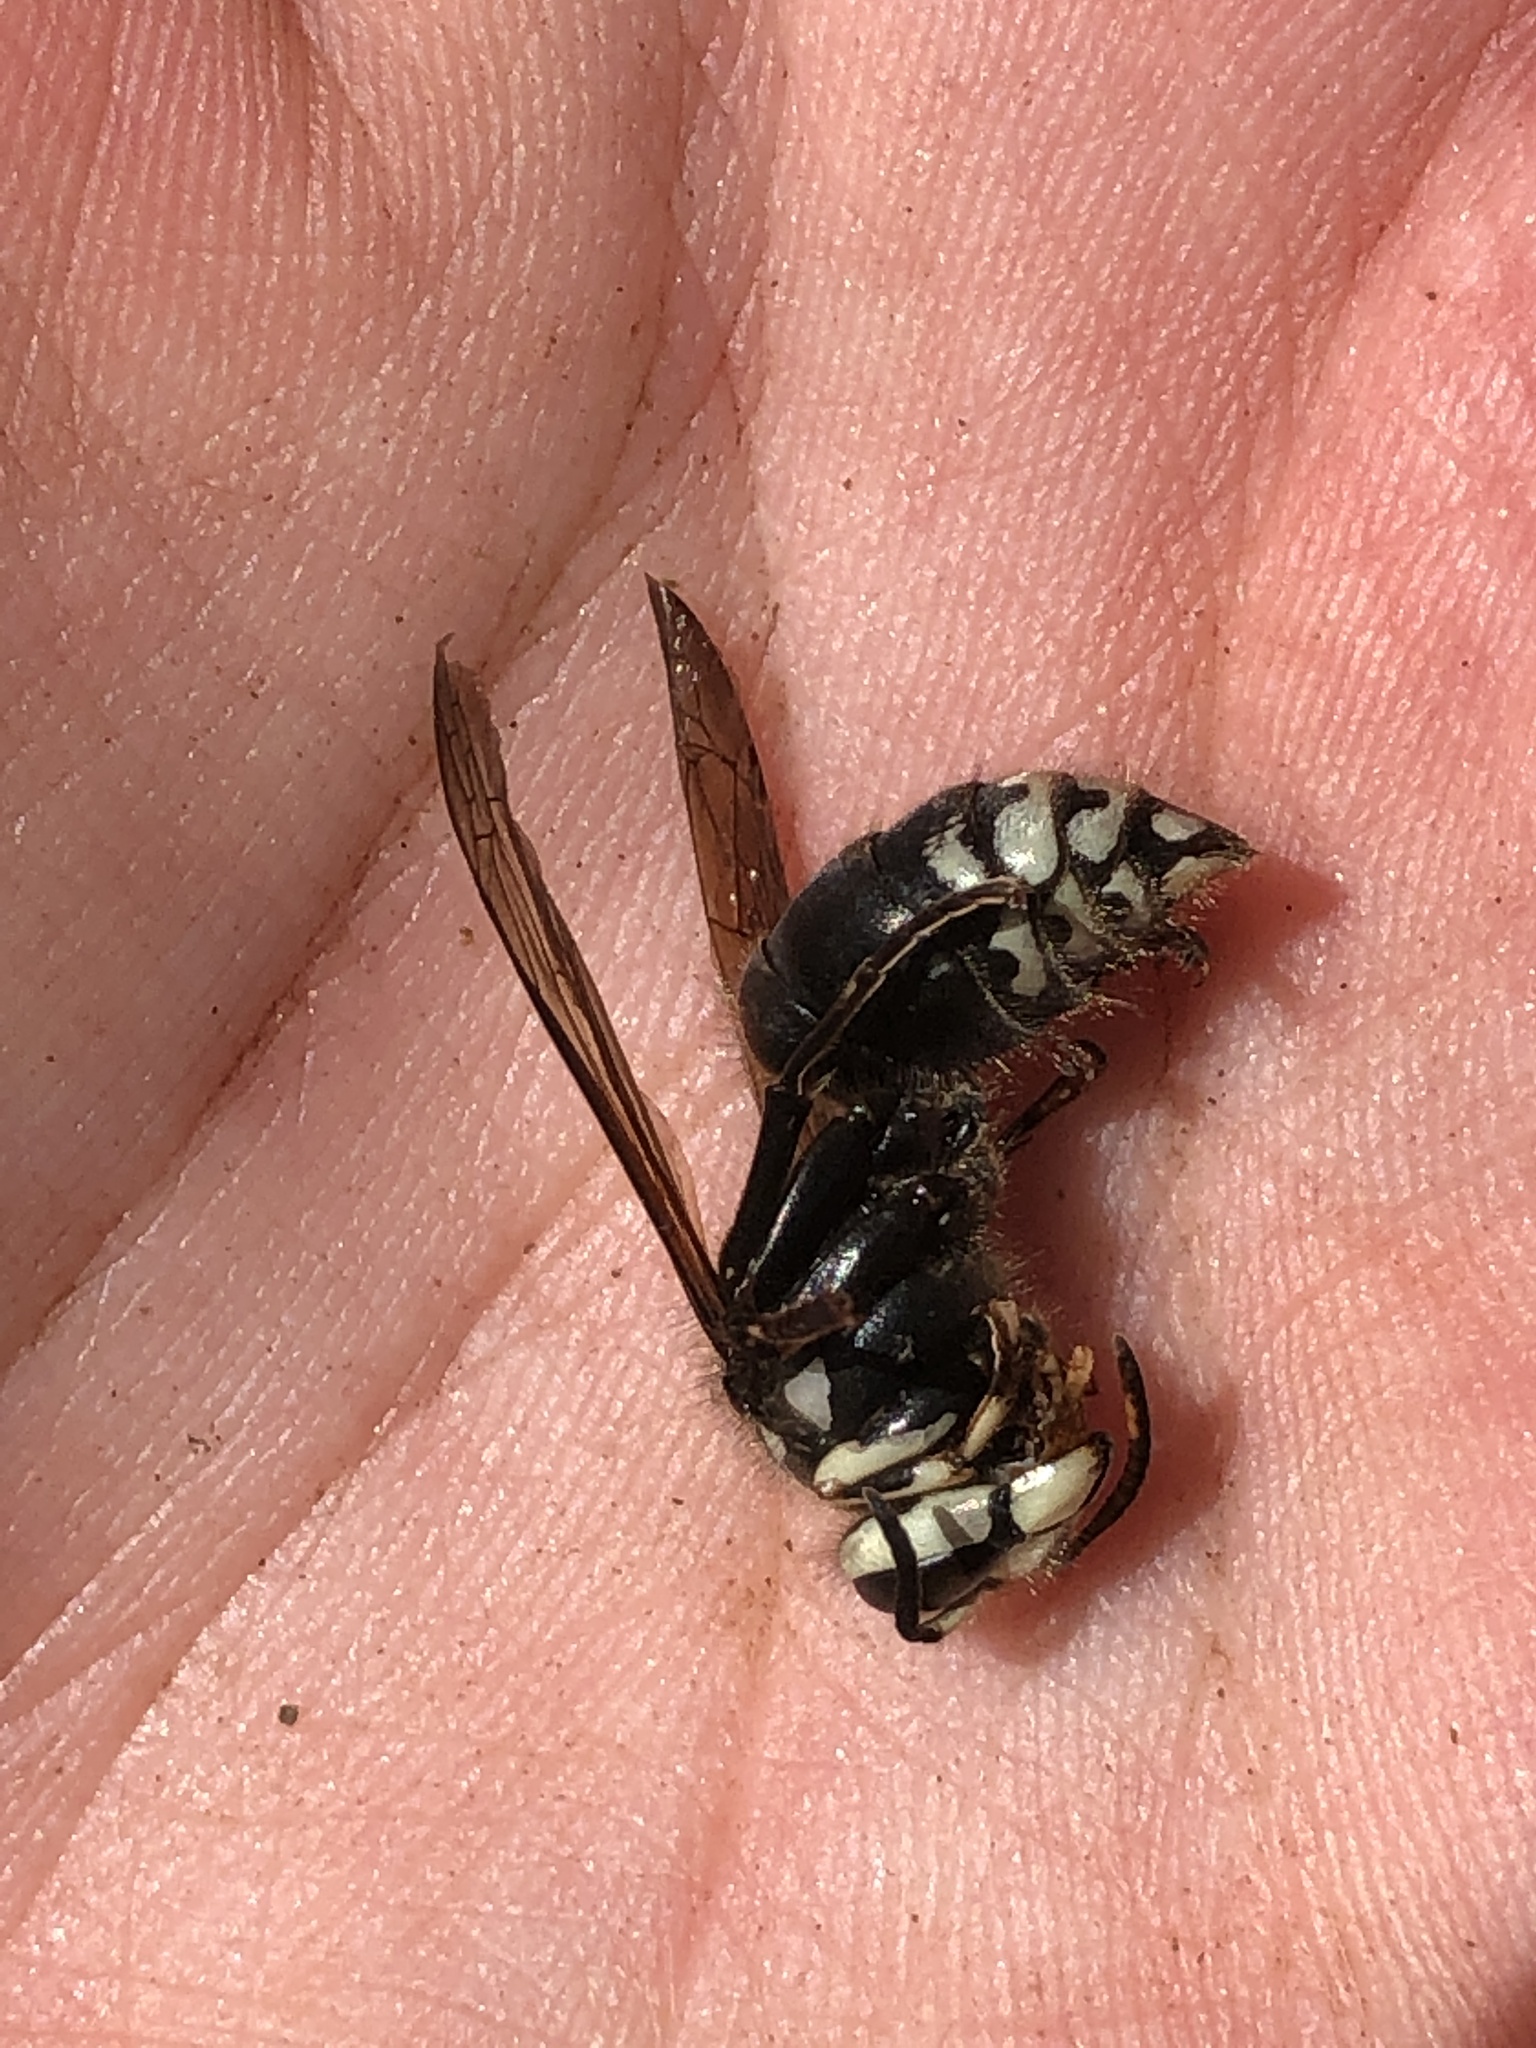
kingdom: Animalia
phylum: Arthropoda
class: Insecta
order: Hymenoptera
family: Vespidae
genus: Dolichovespula
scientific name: Dolichovespula maculata
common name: Bald-faced hornet
